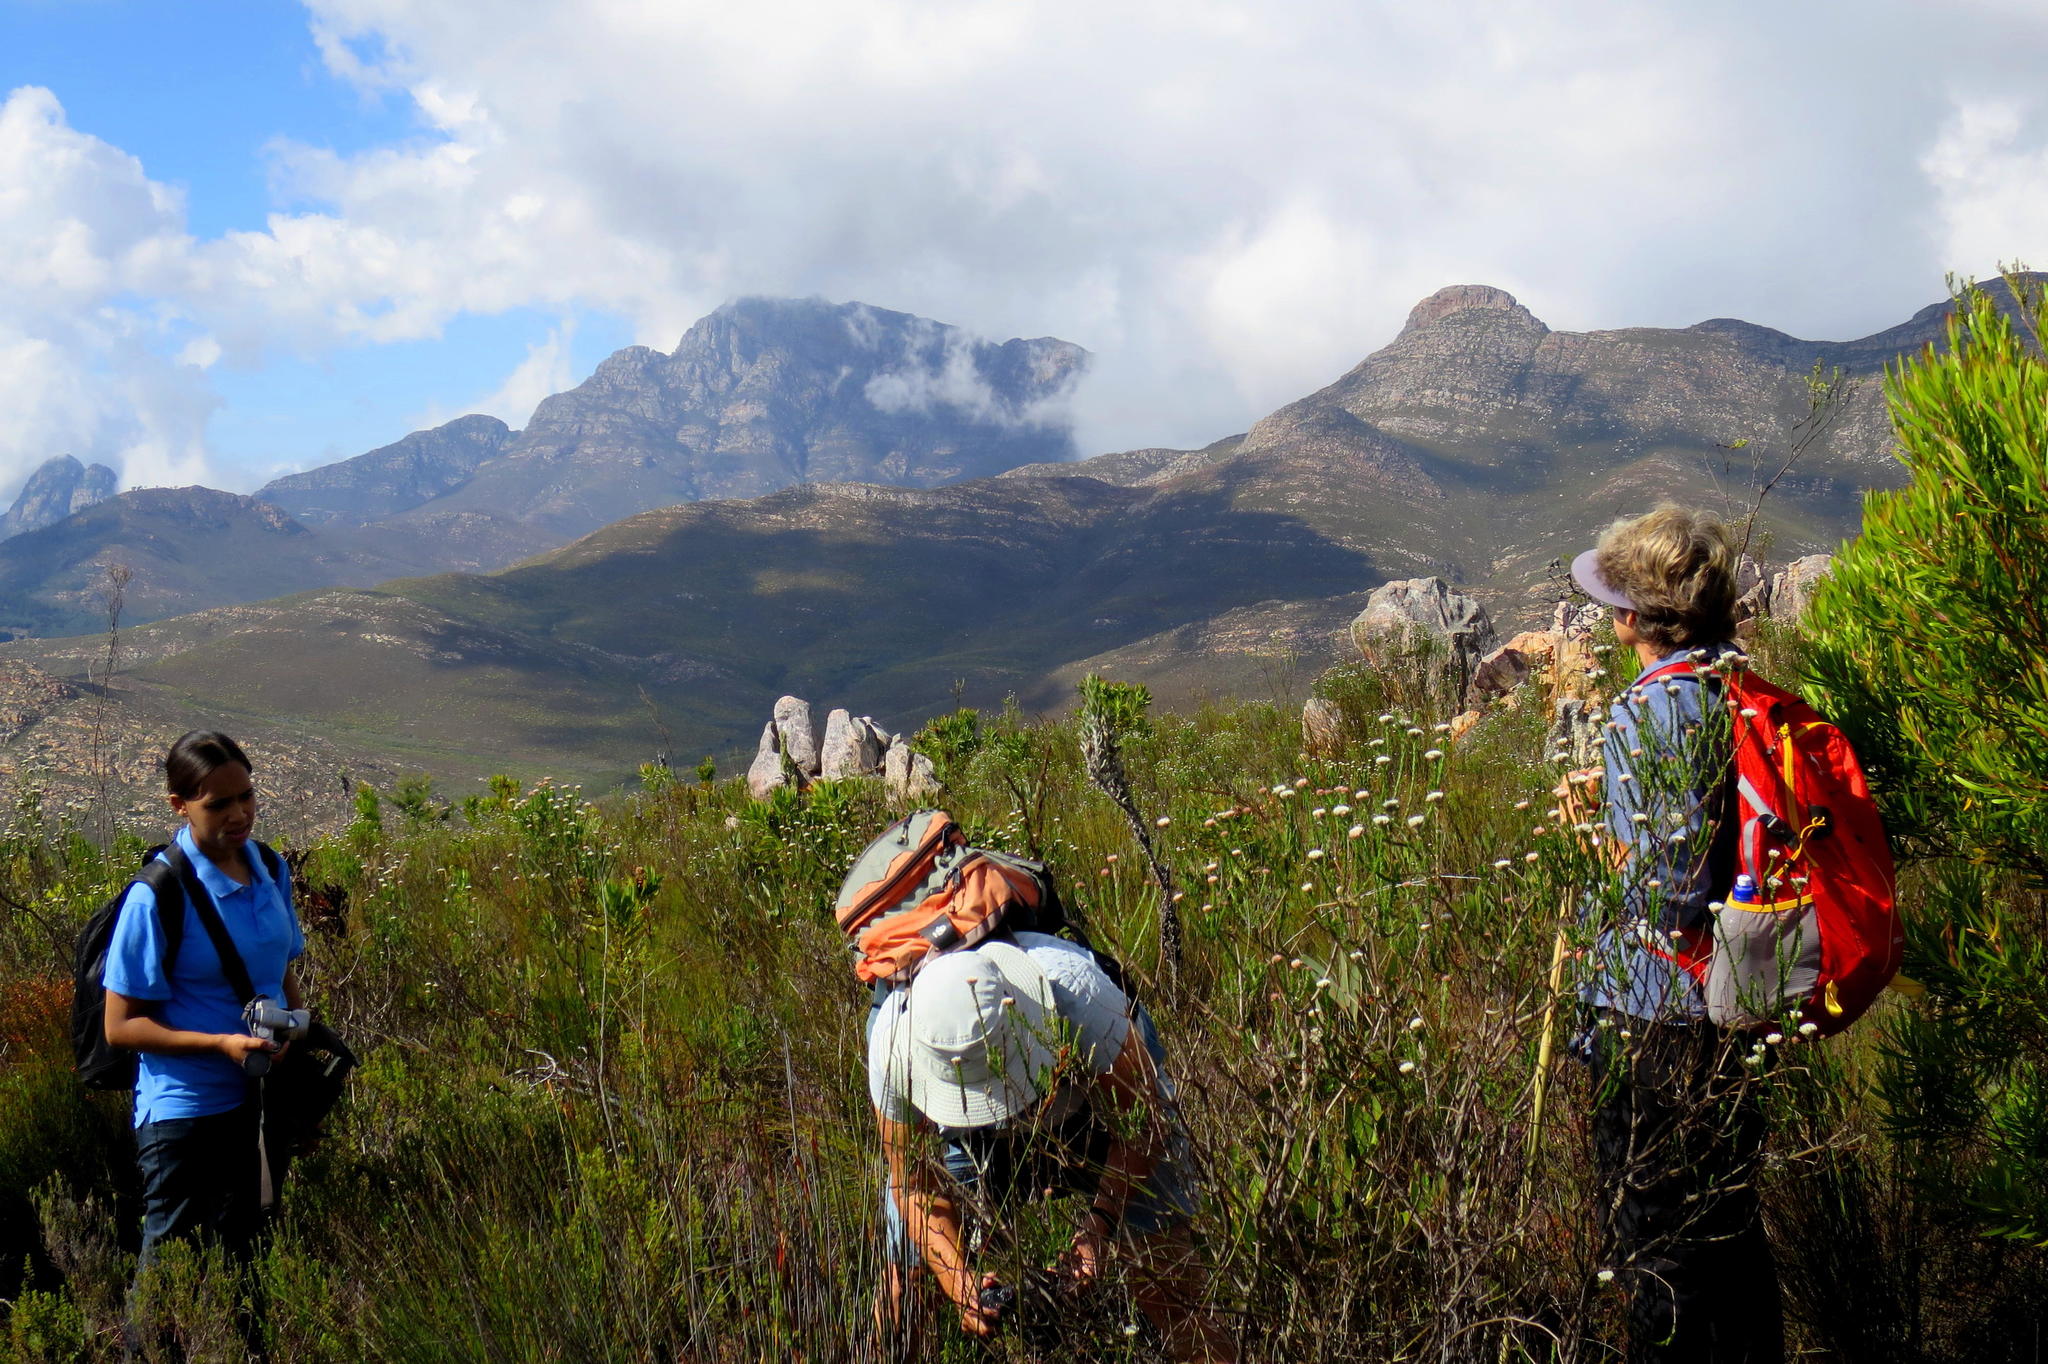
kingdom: Plantae
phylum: Tracheophyta
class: Magnoliopsida
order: Asterales
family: Asteraceae
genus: Metalasia
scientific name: Metalasia pulcherrima
